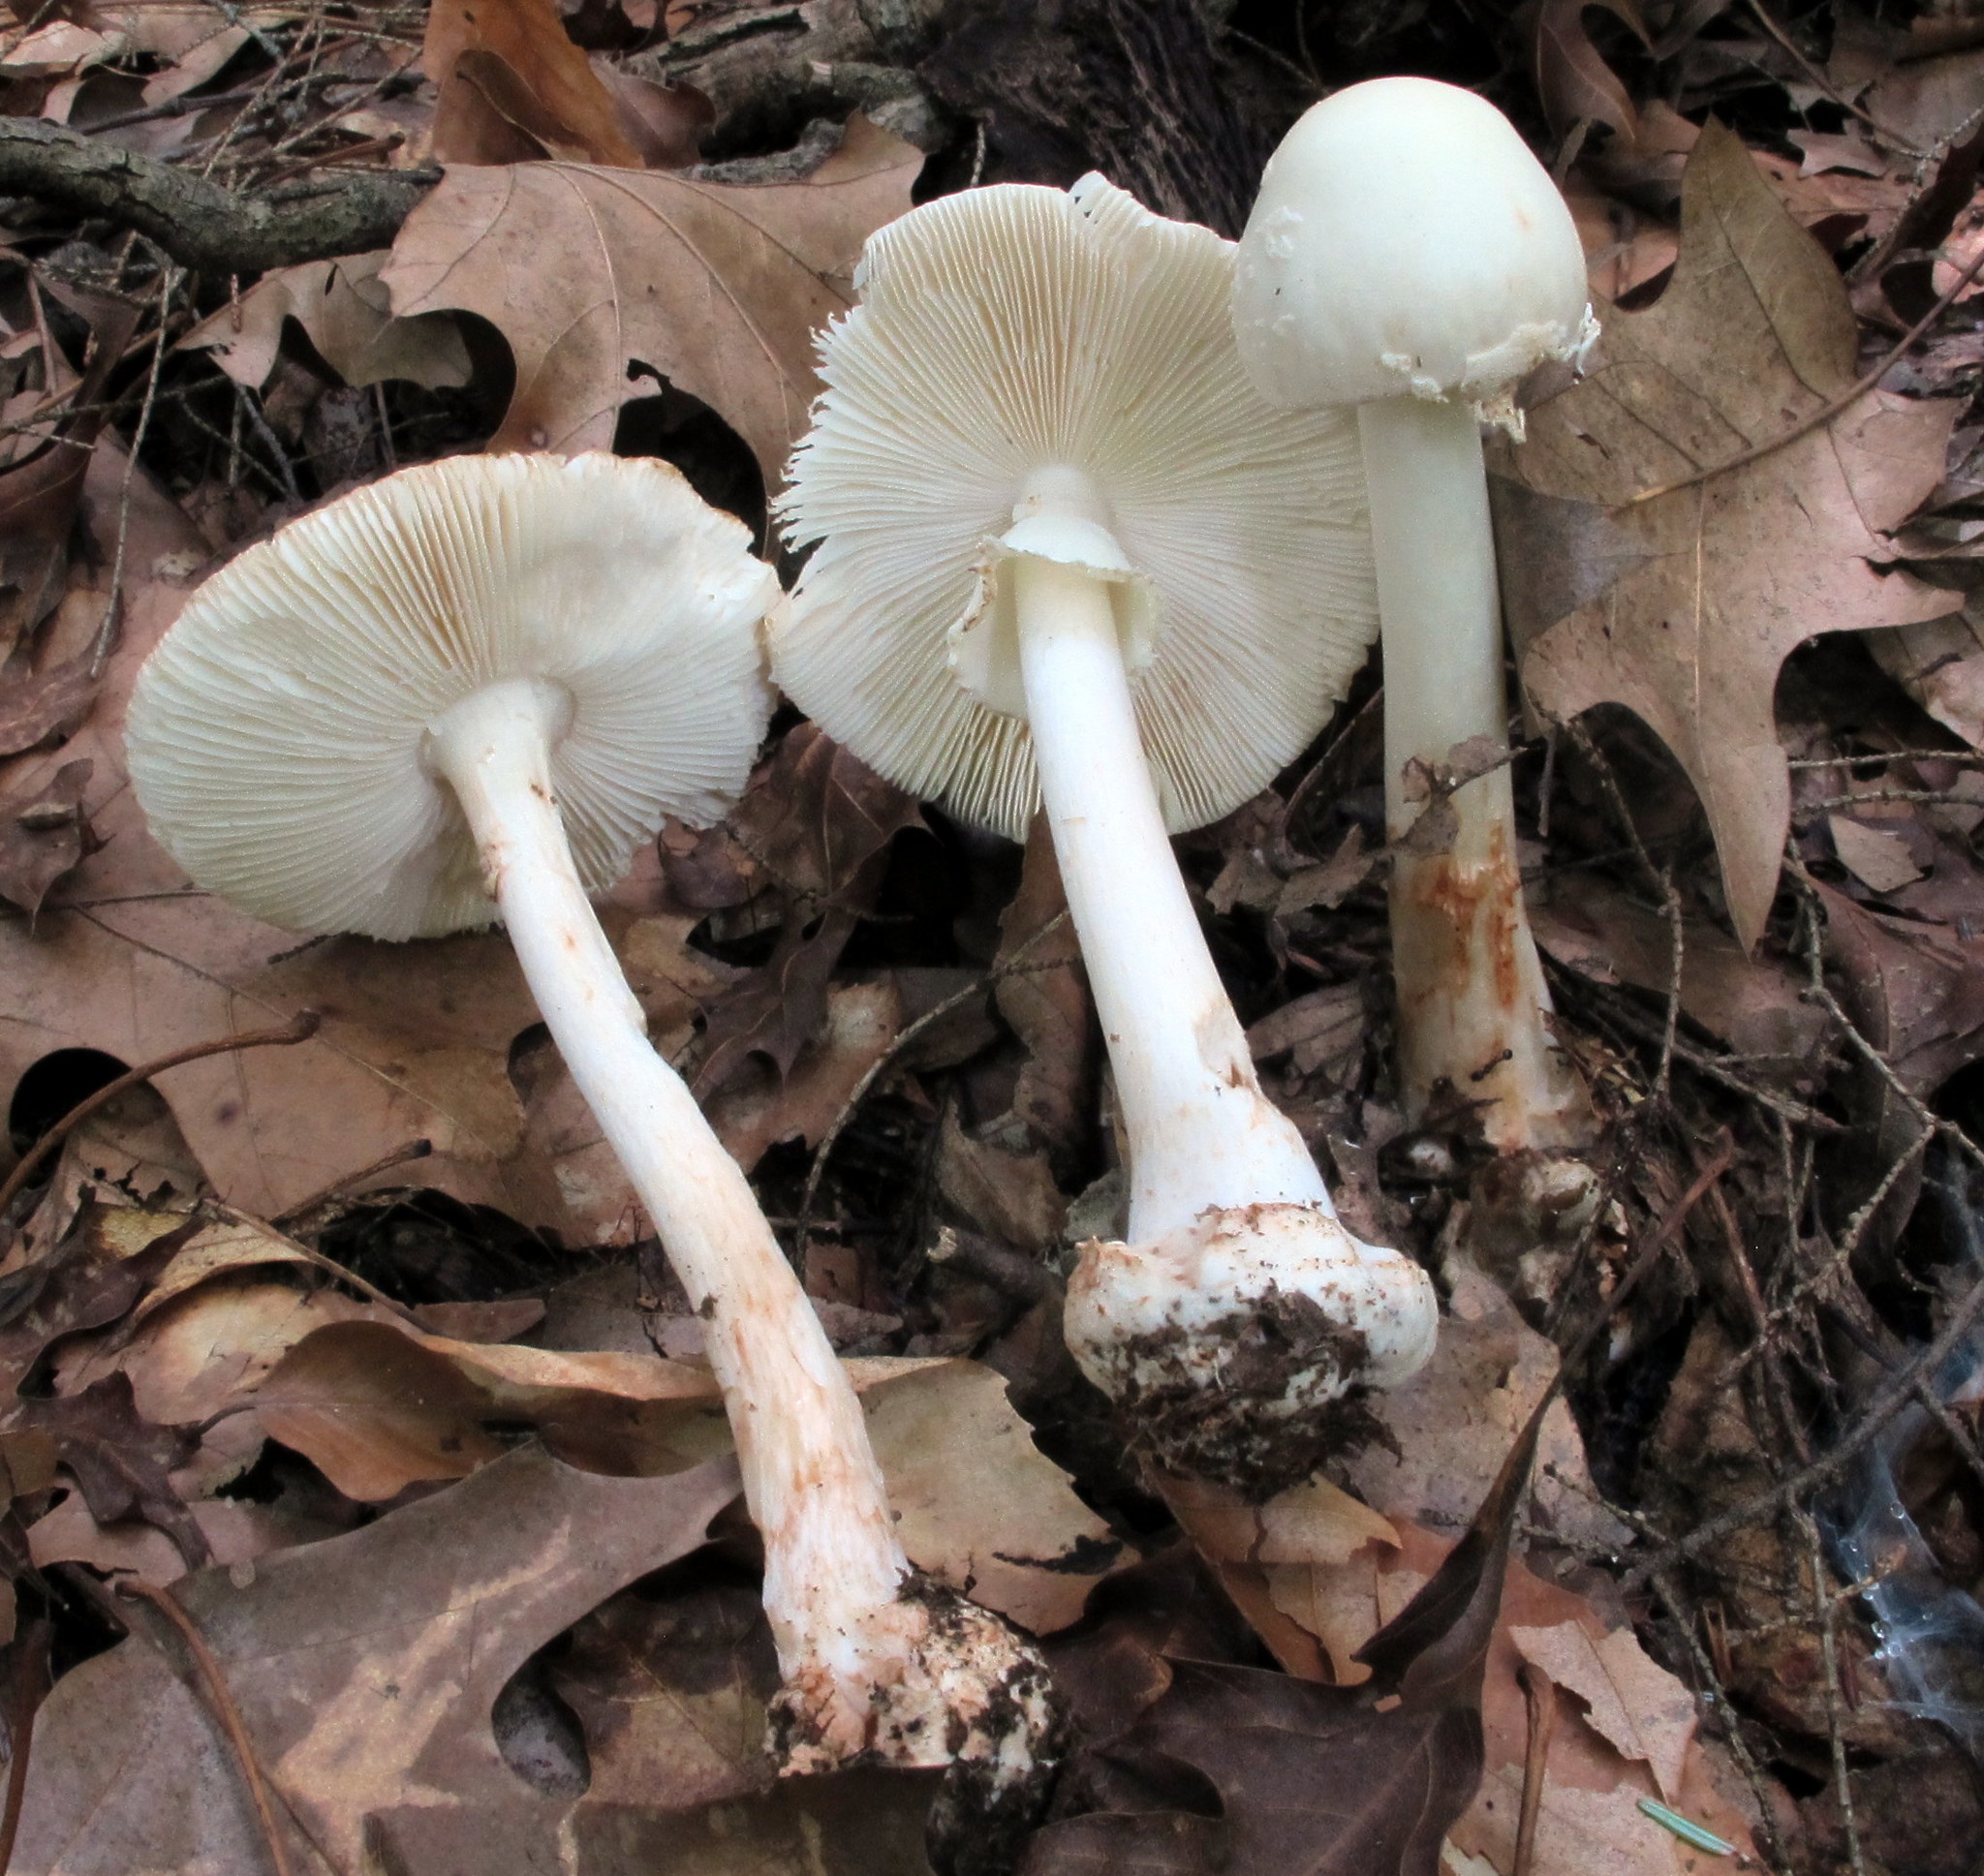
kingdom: Fungi
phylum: Basidiomycota
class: Agaricomycetes
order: Agaricales
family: Amanitaceae
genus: Amanita
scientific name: Amanita brunnescens
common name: Brown american star-footed amanita
